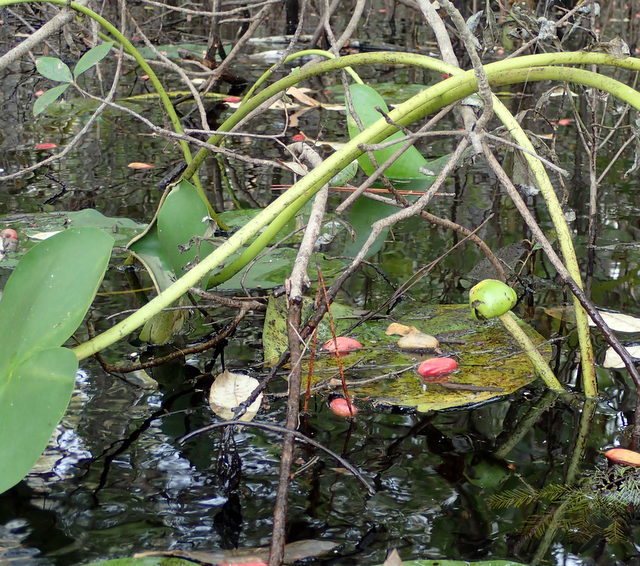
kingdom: Plantae
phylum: Tracheophyta
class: Magnoliopsida
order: Nymphaeales
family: Nymphaeaceae
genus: Nuphar
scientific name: Nuphar advena
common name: Spatter-dock
